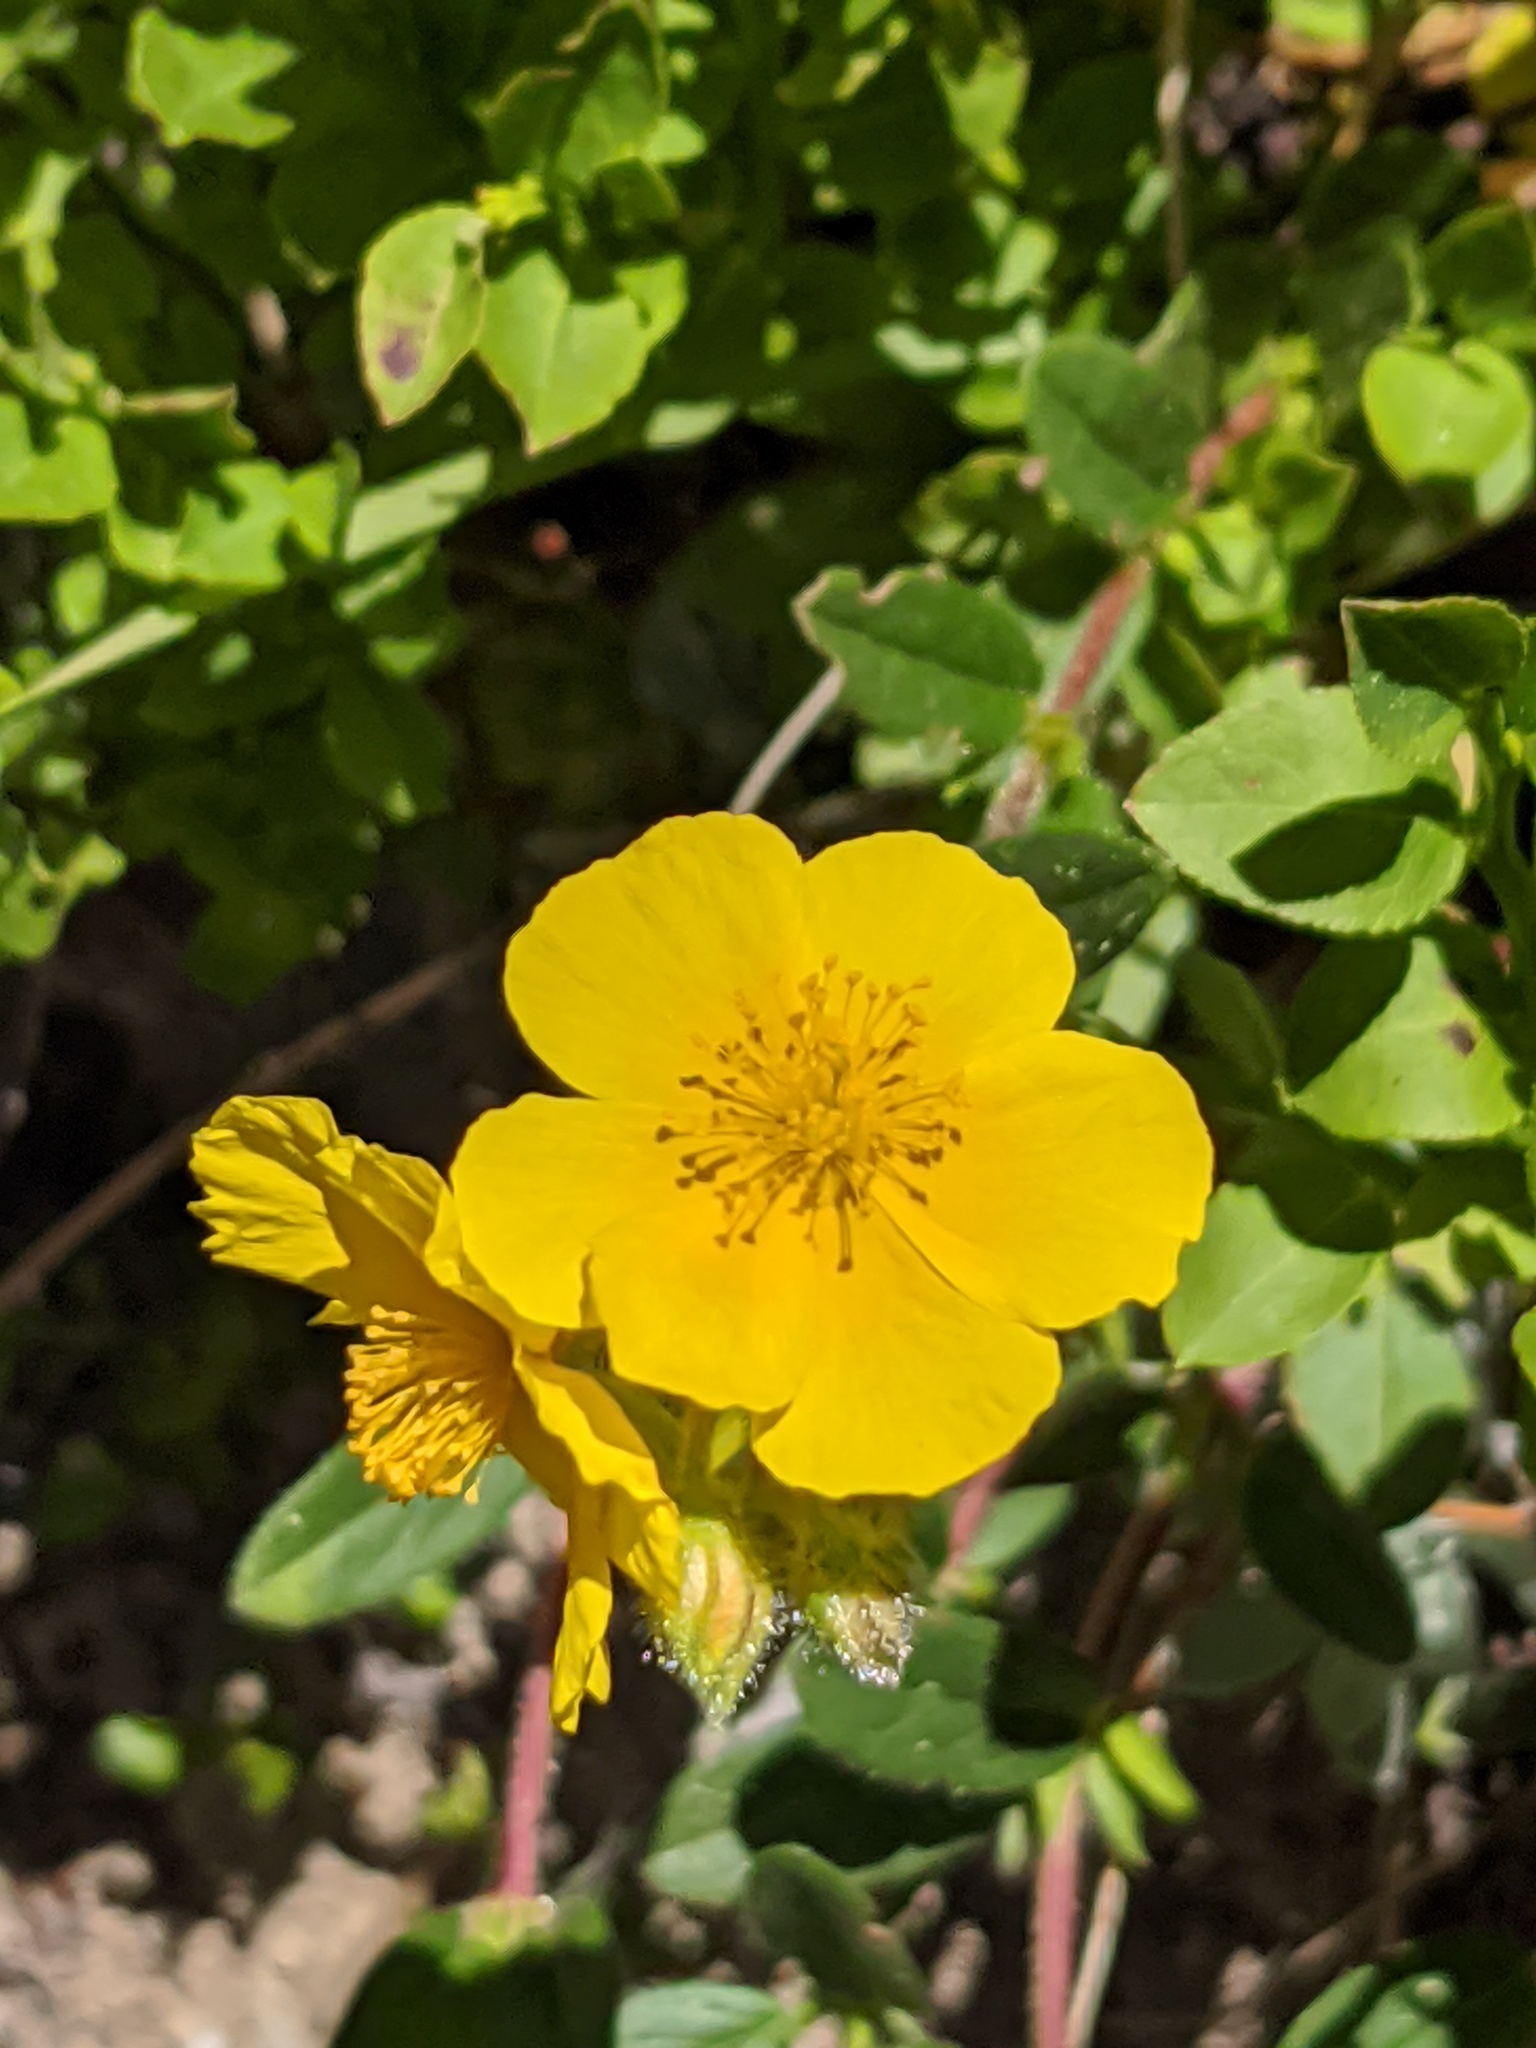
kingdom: Plantae
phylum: Tracheophyta
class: Magnoliopsida
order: Malvales
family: Cistaceae
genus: Helianthemum
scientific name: Helianthemum nummularium
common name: Common rock-rose
